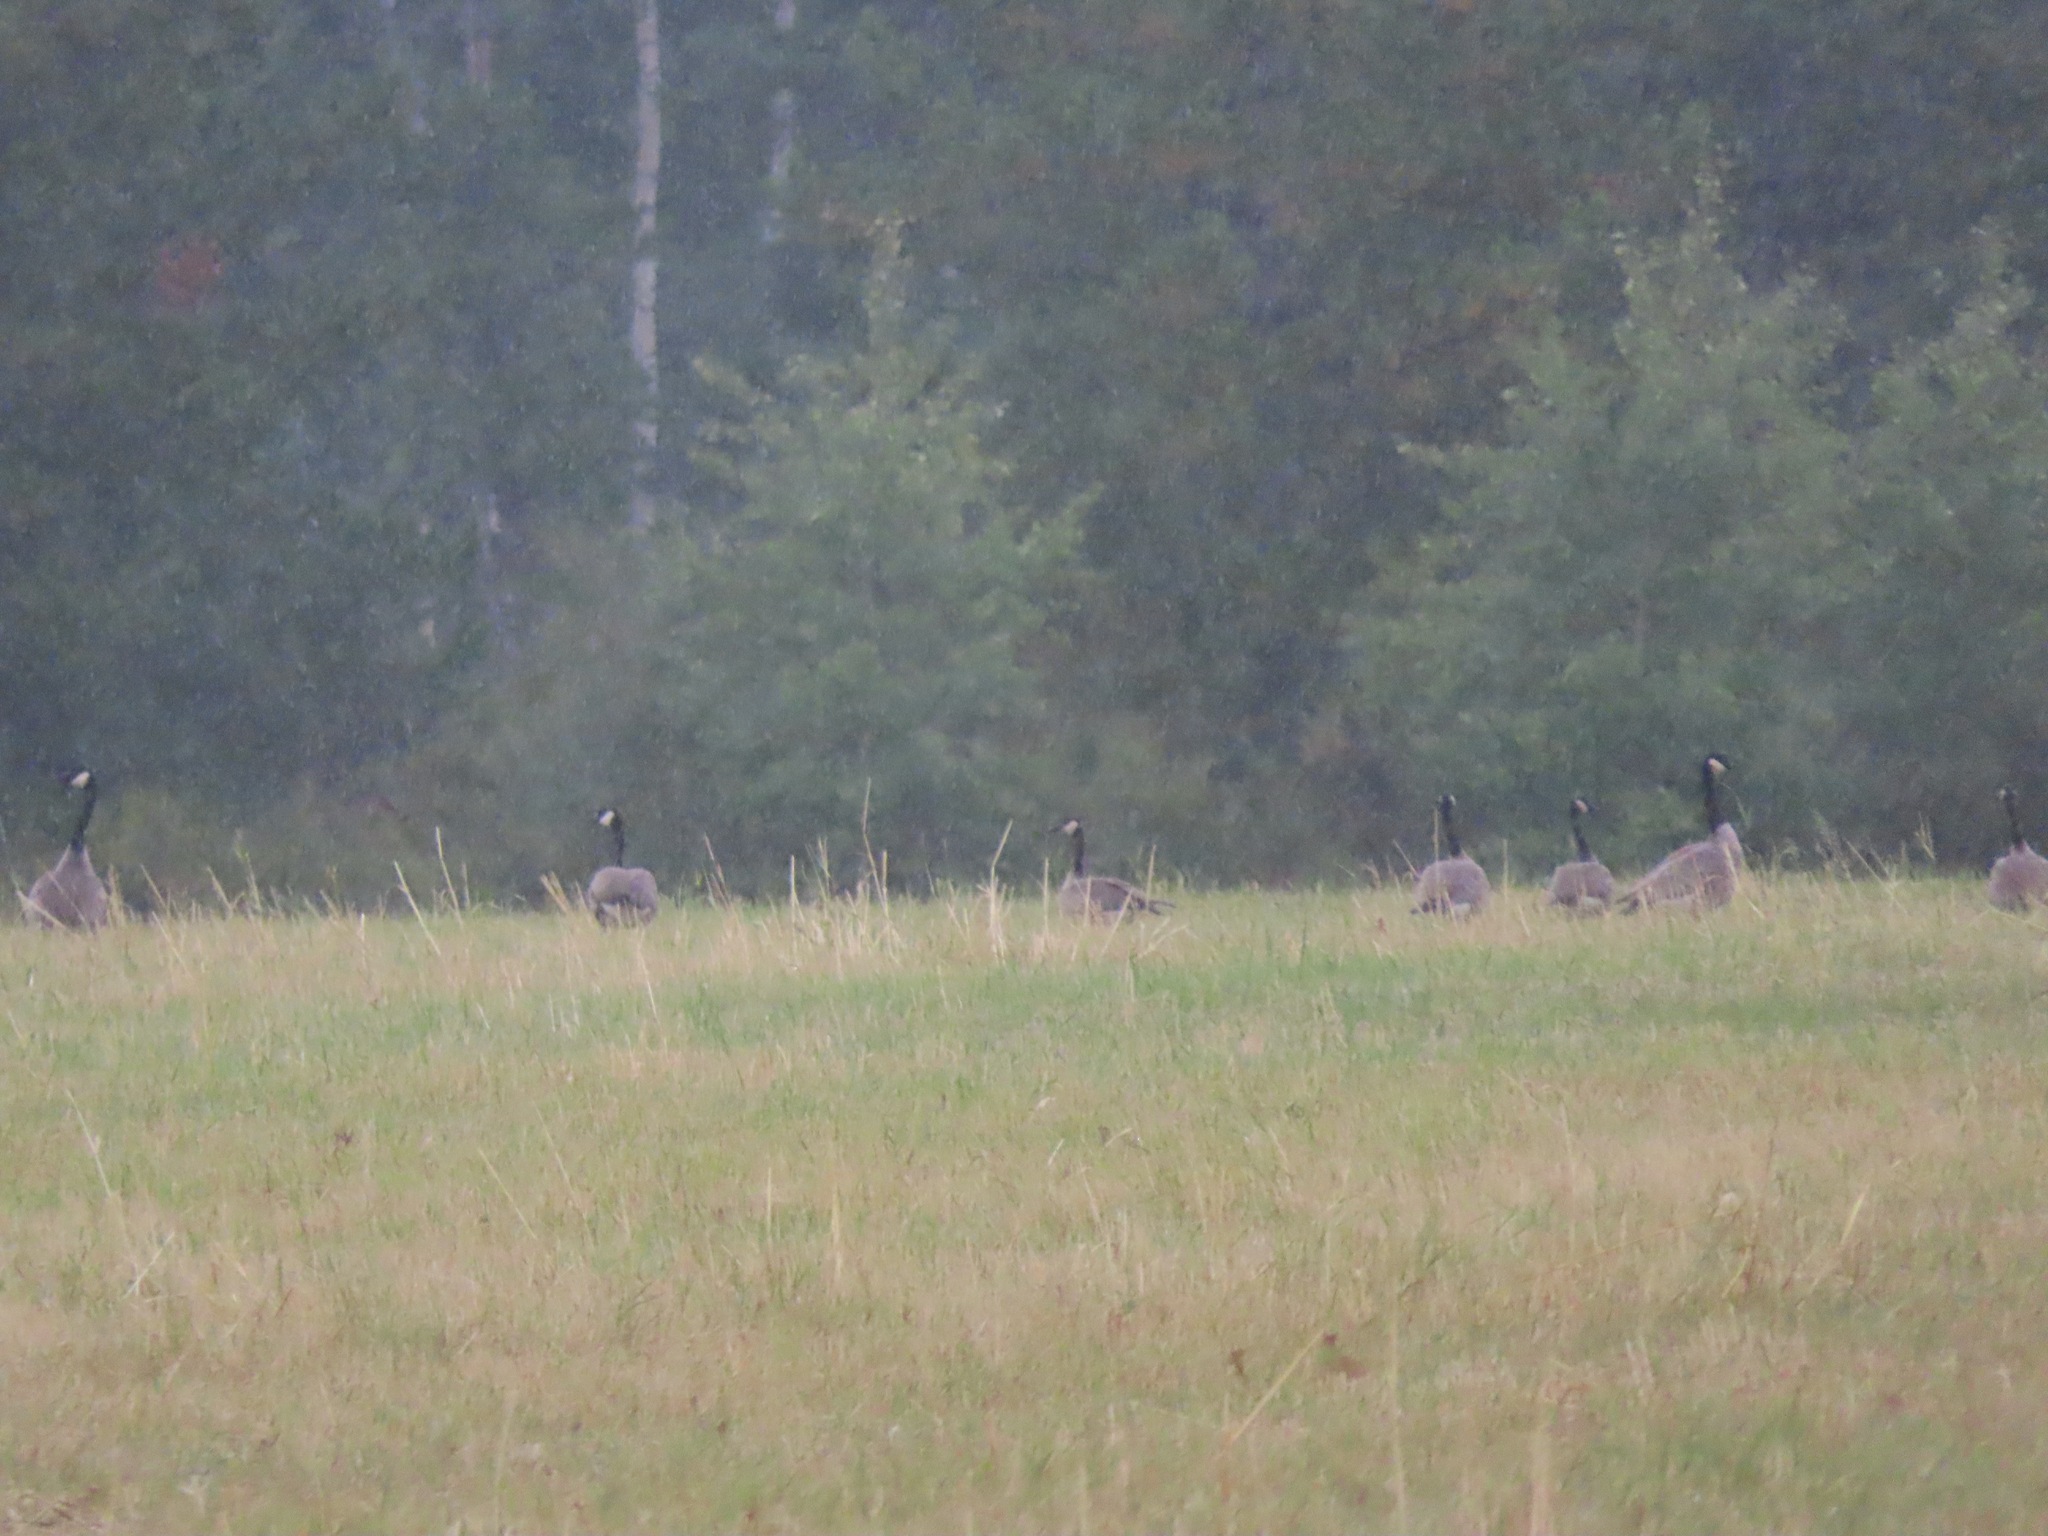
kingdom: Animalia
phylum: Chordata
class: Aves
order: Anseriformes
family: Anatidae
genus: Branta
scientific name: Branta canadensis
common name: Canada goose
